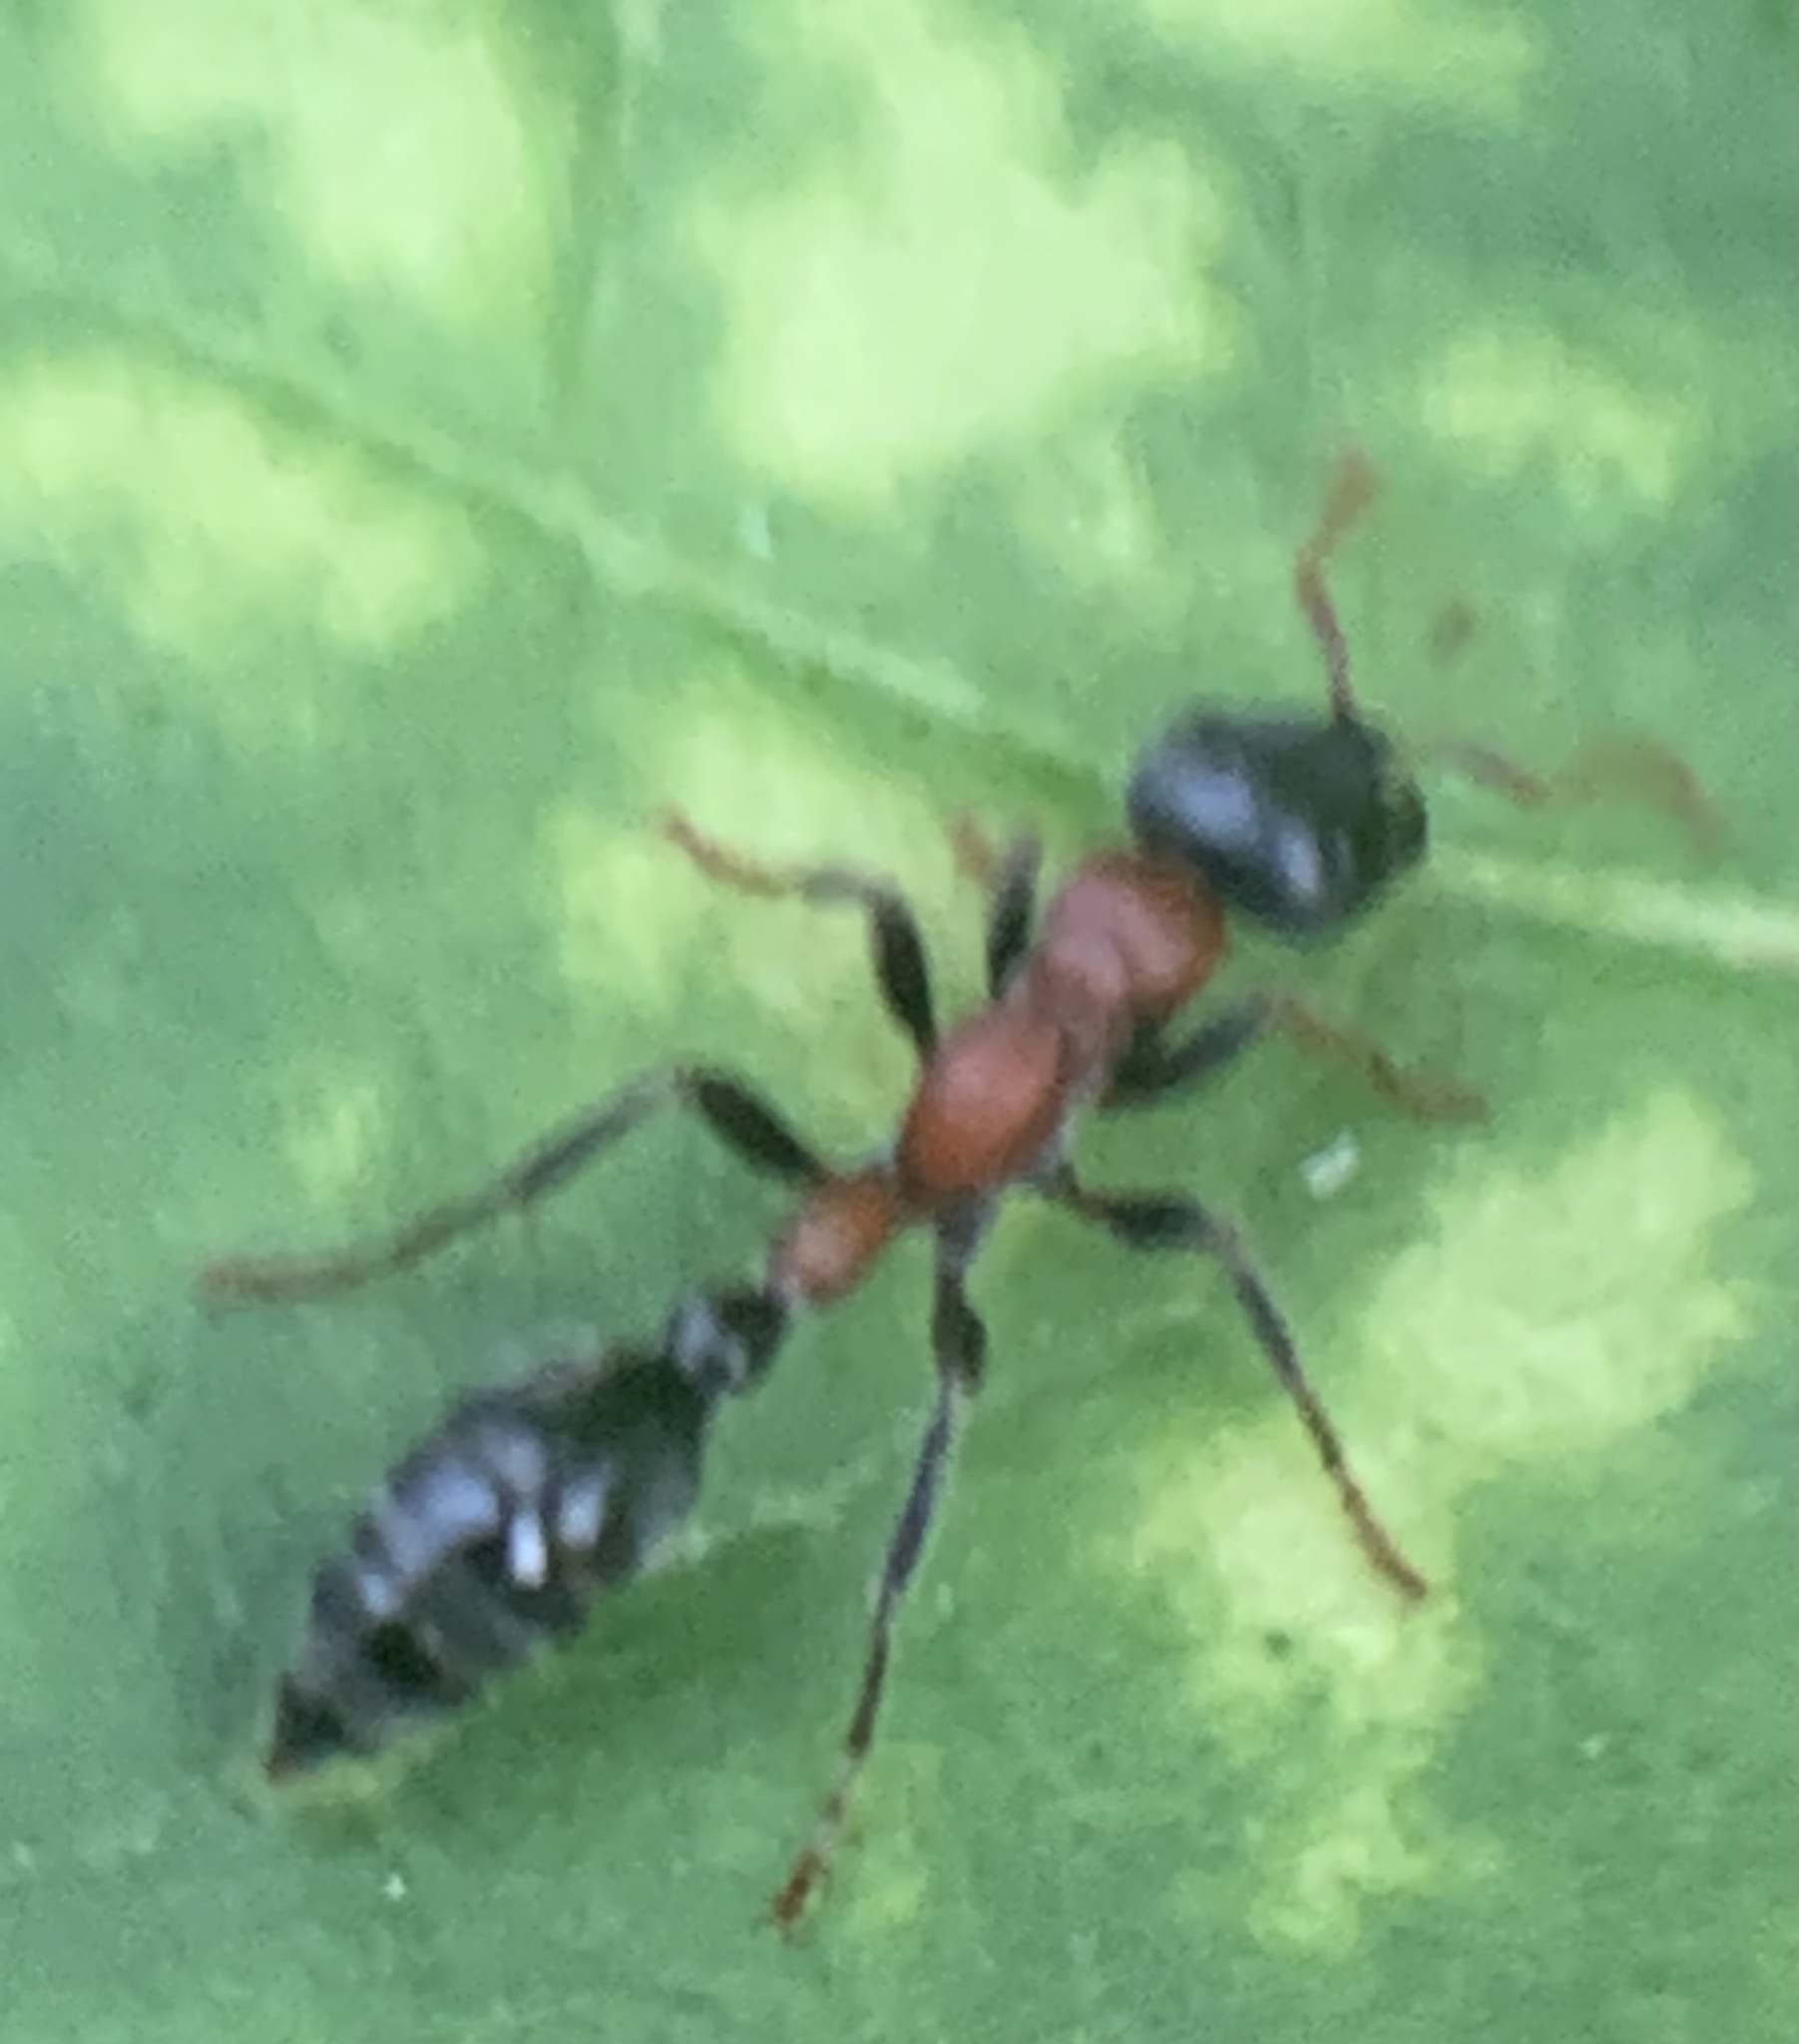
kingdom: Animalia
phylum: Arthropoda
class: Insecta
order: Hymenoptera
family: Formicidae
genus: Tetraponera
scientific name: Tetraponera rufonigra
